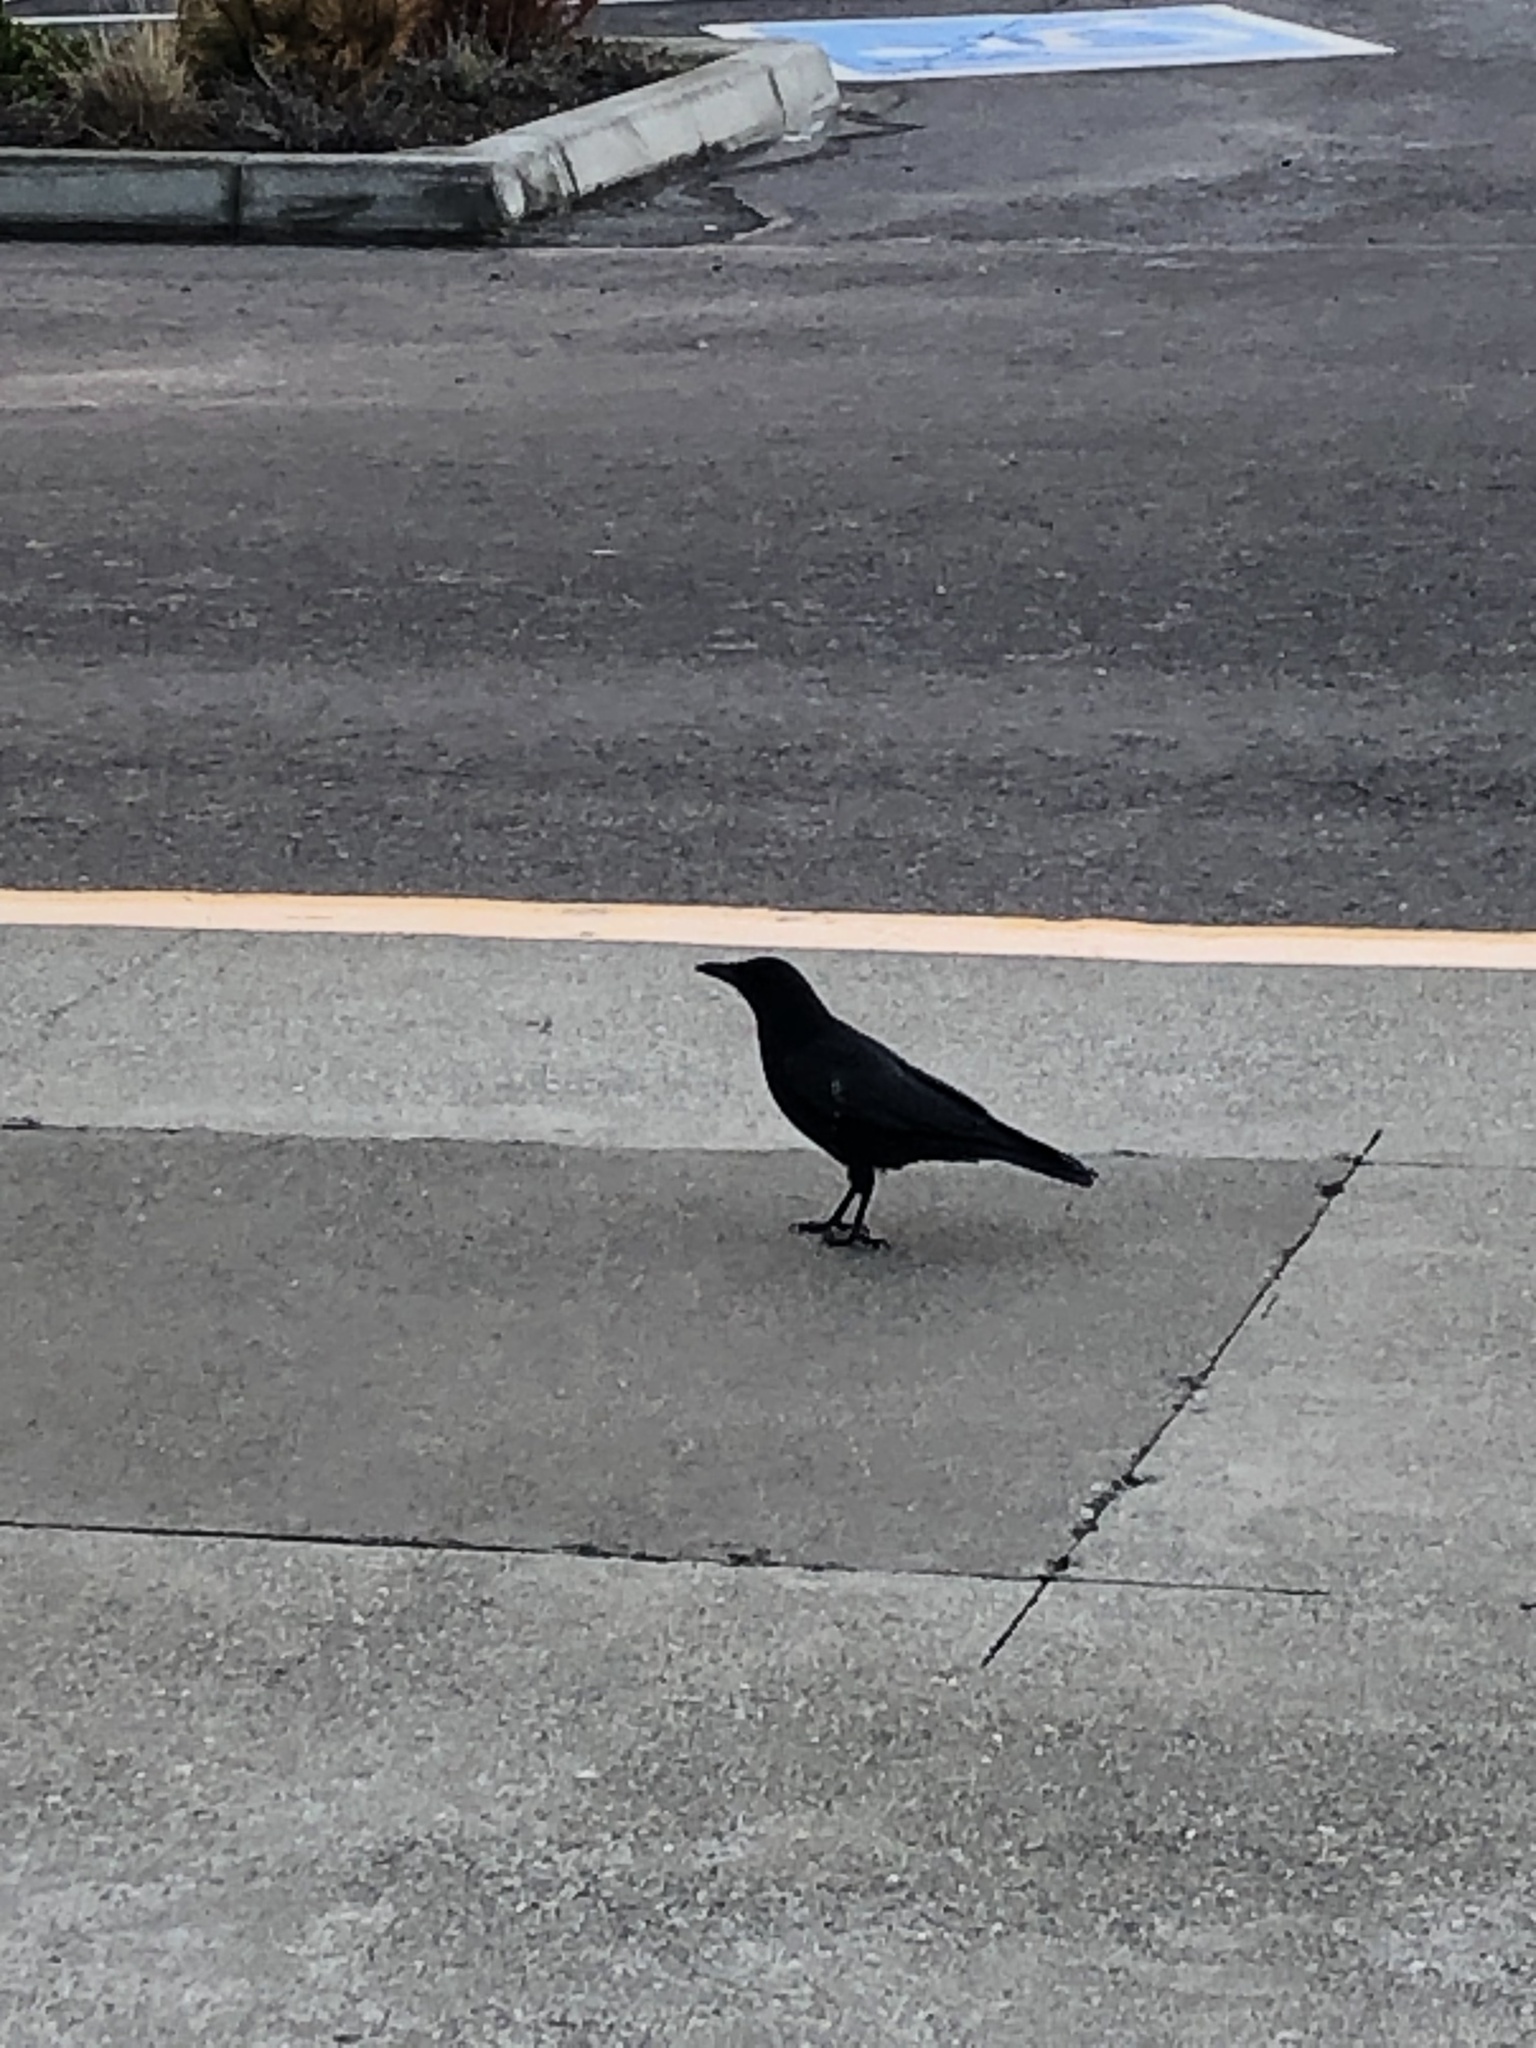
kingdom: Animalia
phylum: Chordata
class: Aves
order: Passeriformes
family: Corvidae
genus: Corvus
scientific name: Corvus brachyrhynchos
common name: American crow
